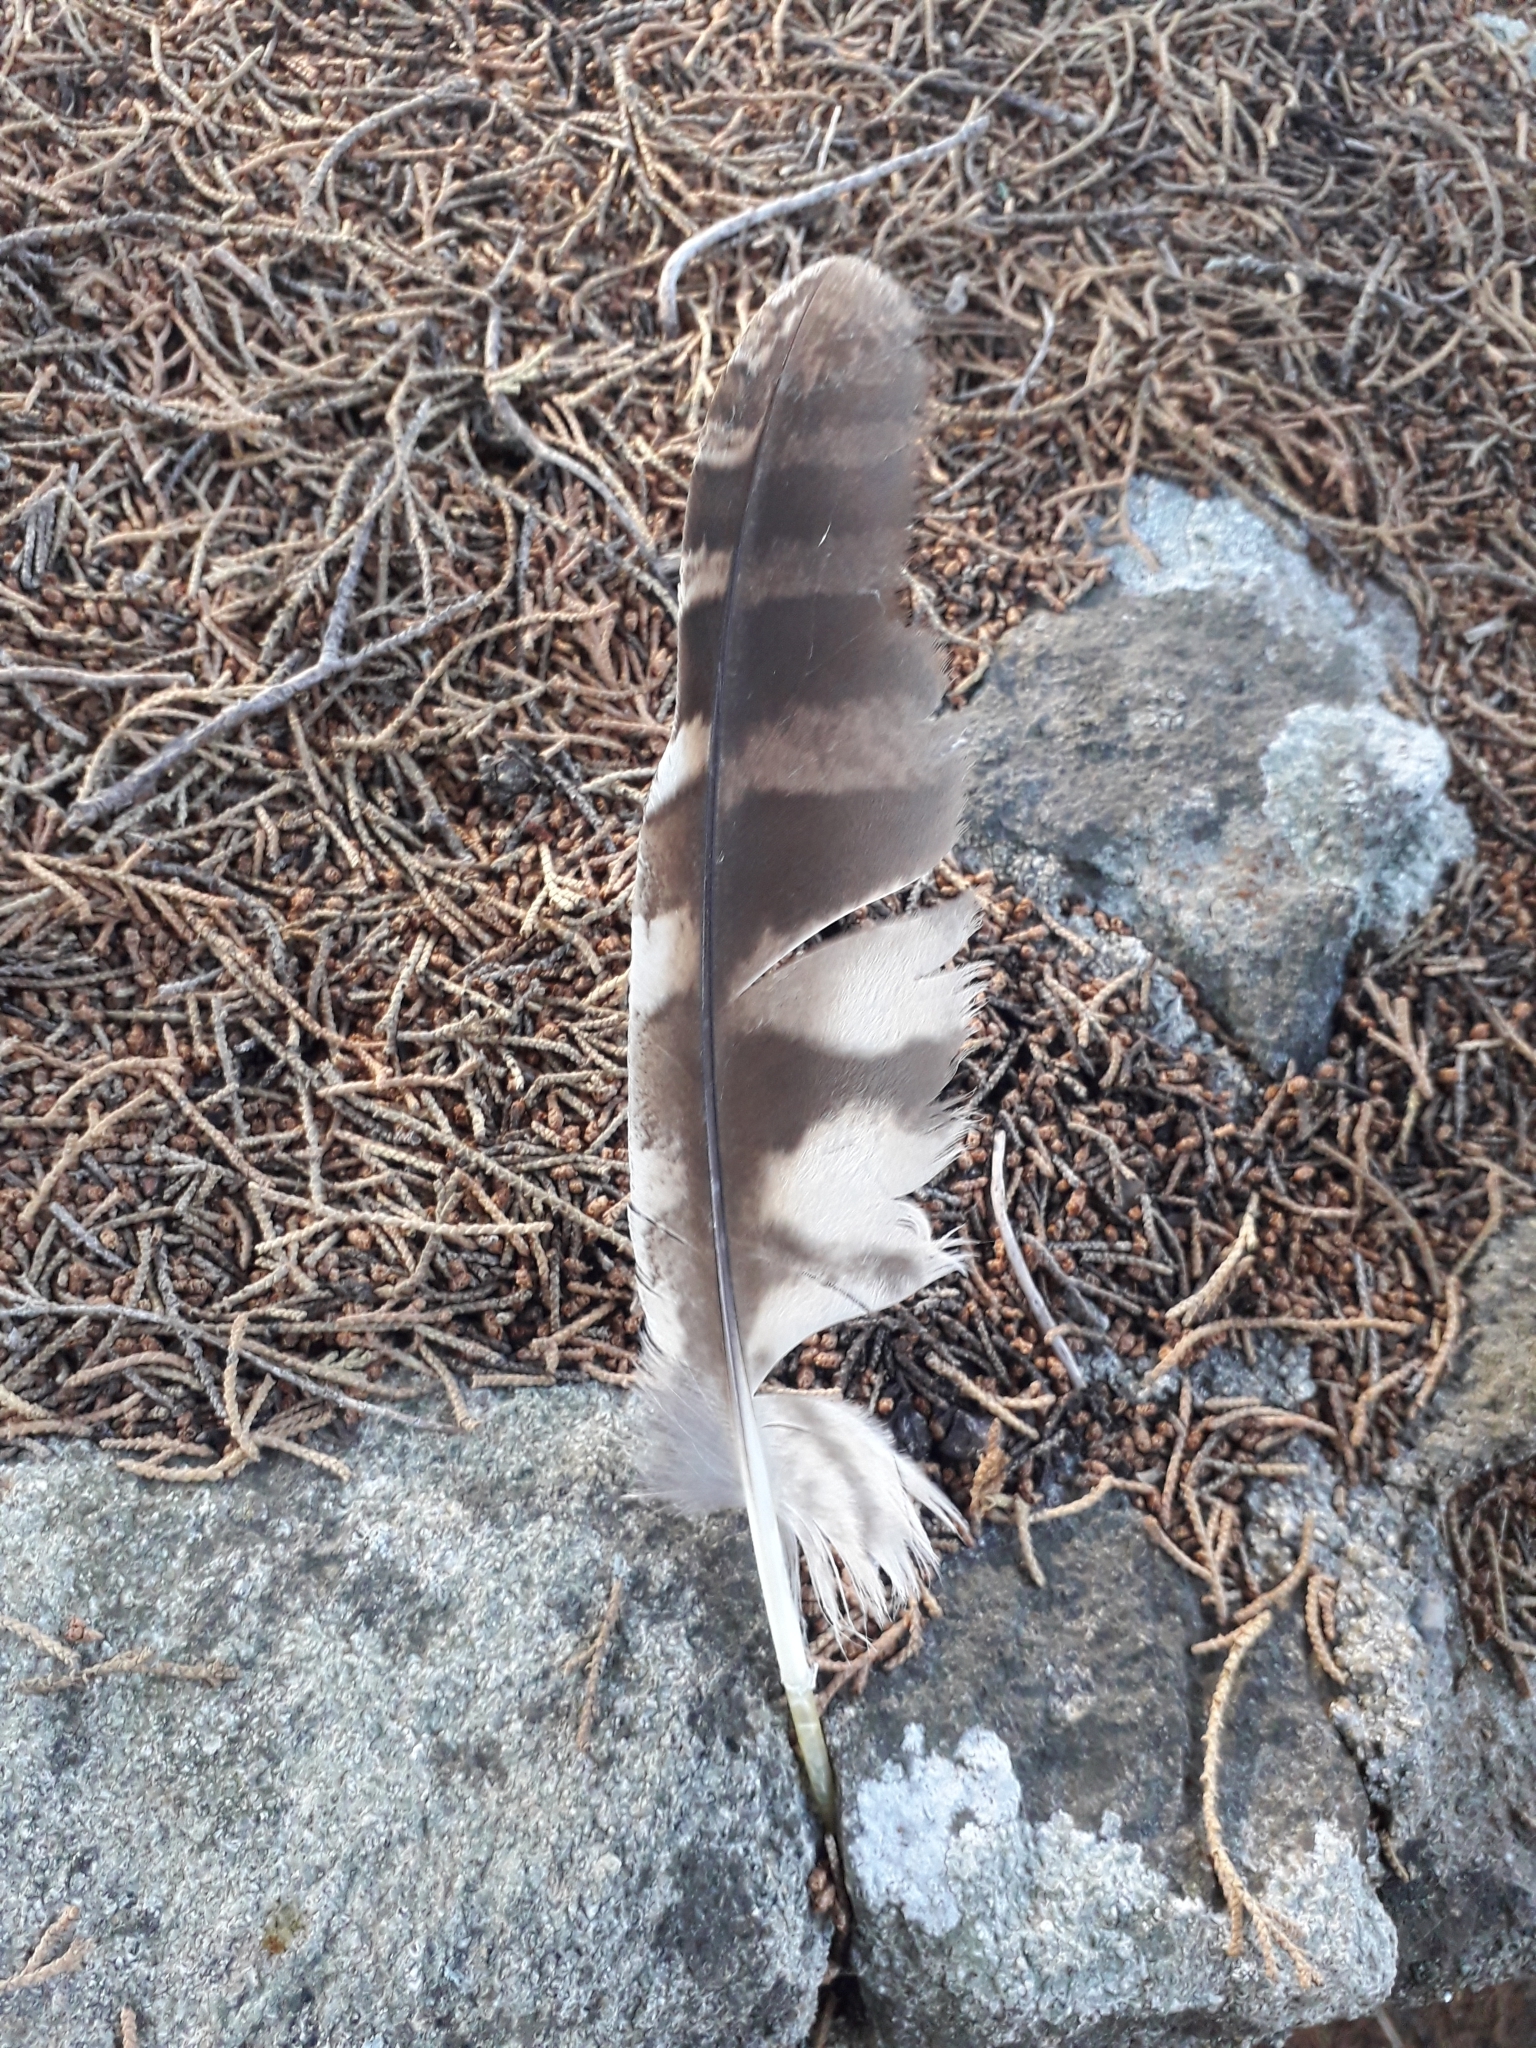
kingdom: Animalia
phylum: Chordata
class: Aves
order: Strigiformes
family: Strigidae
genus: Strix
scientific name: Strix aluco
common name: Tawny owl
